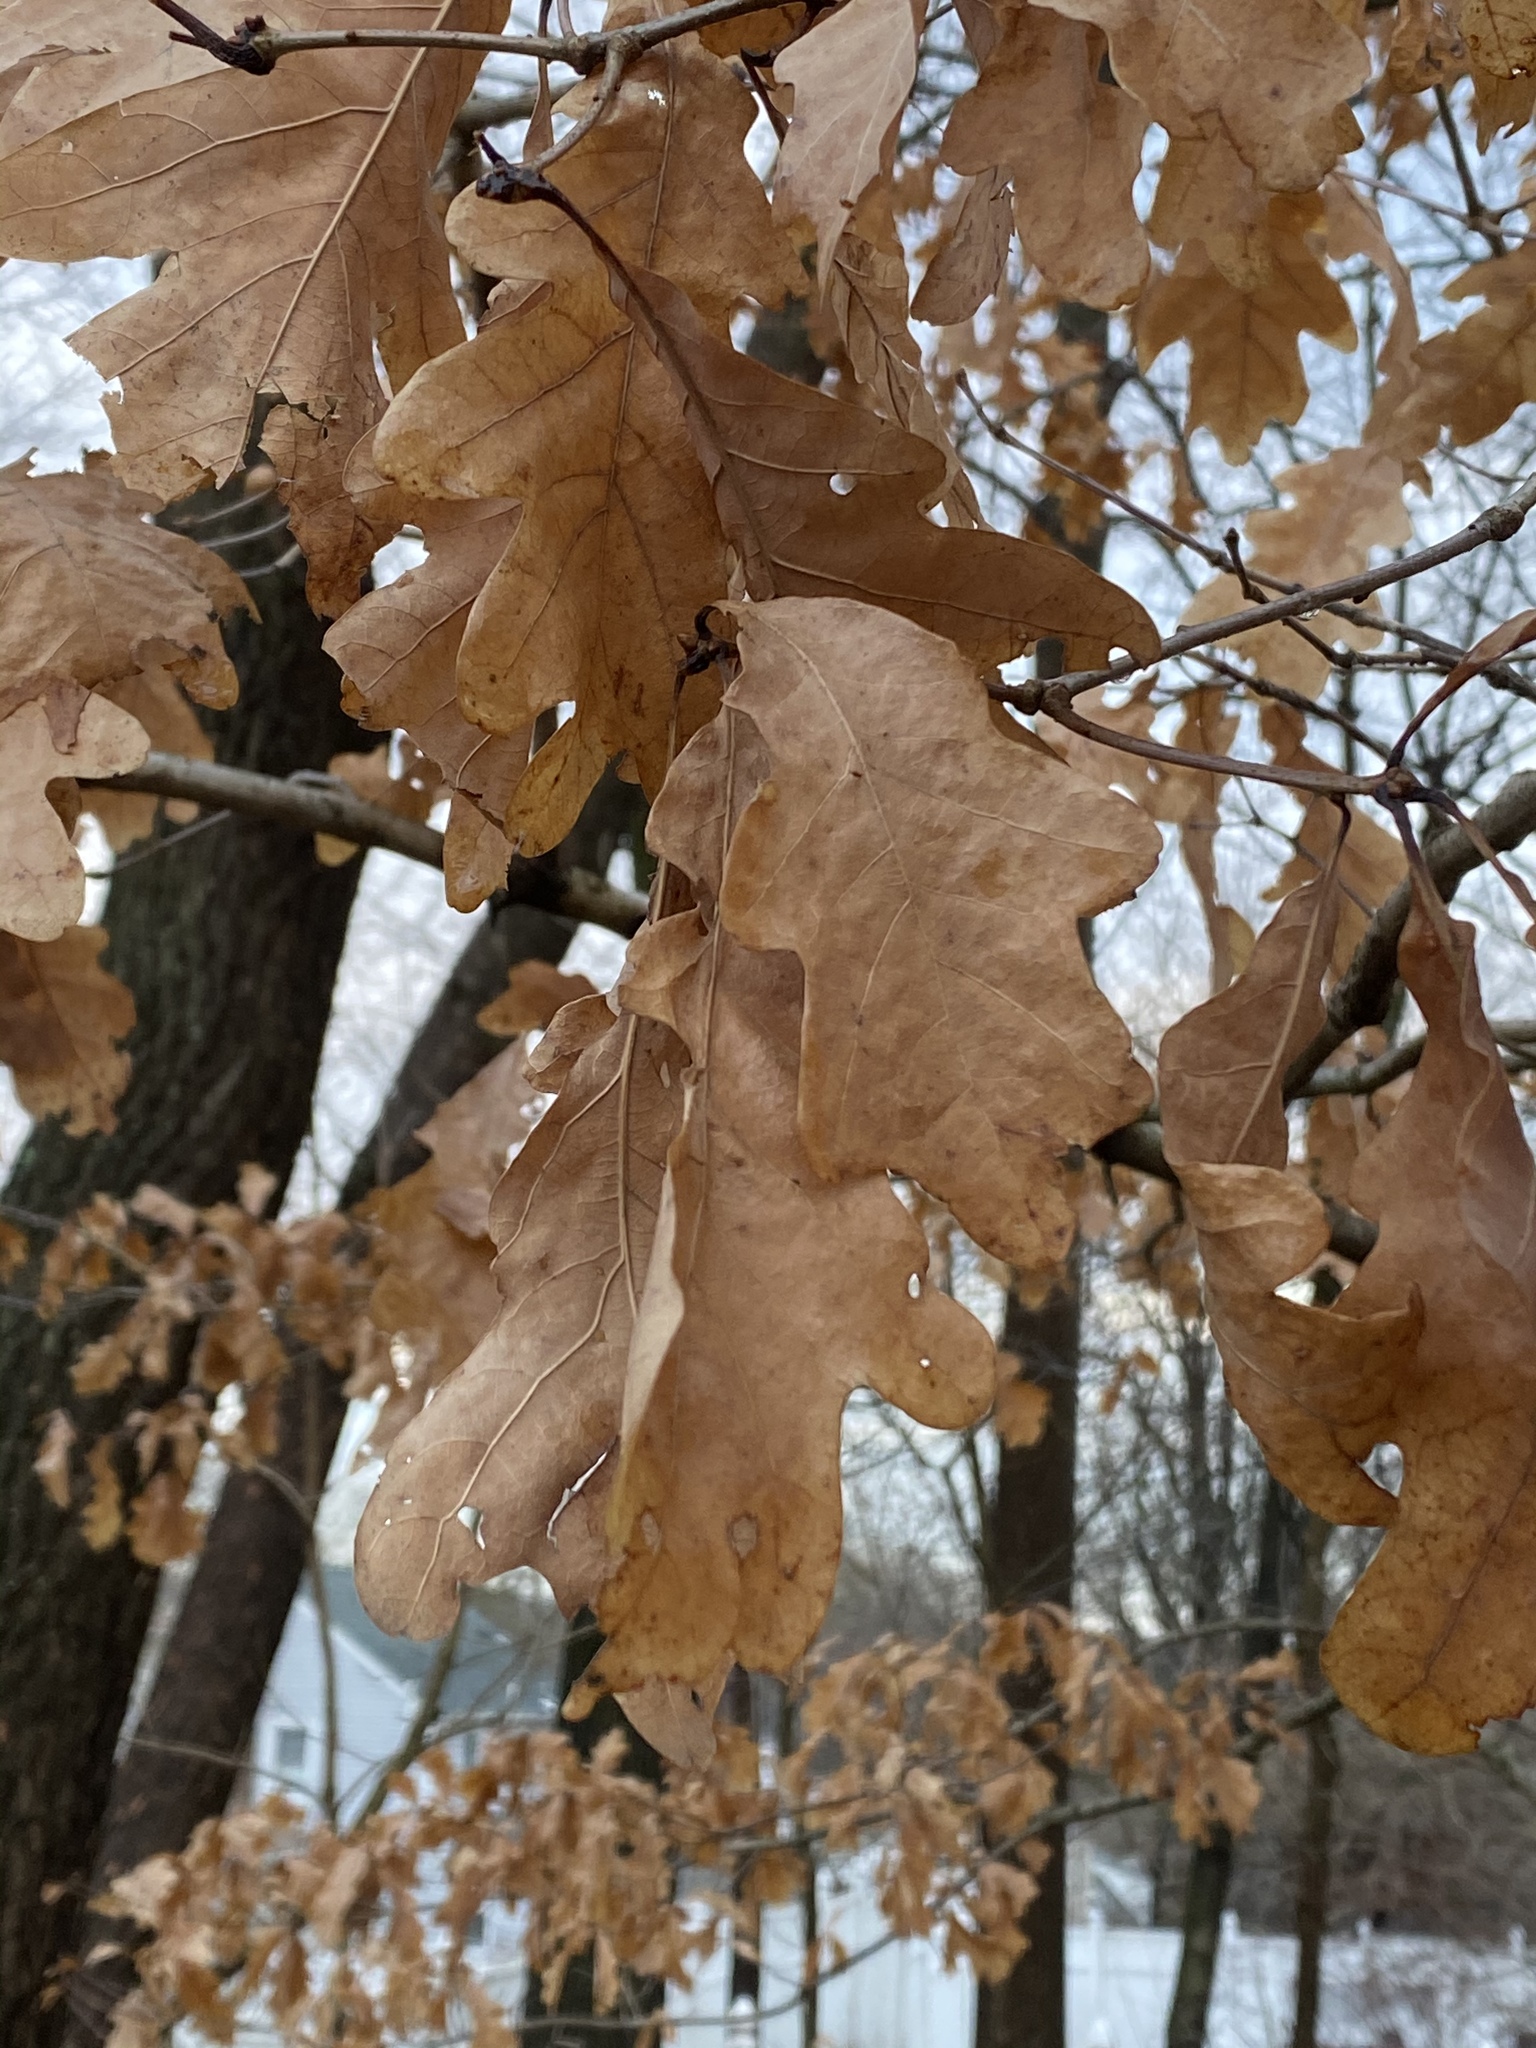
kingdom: Plantae
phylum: Tracheophyta
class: Magnoliopsida
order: Fagales
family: Fagaceae
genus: Quercus
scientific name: Quercus alba
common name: White oak
